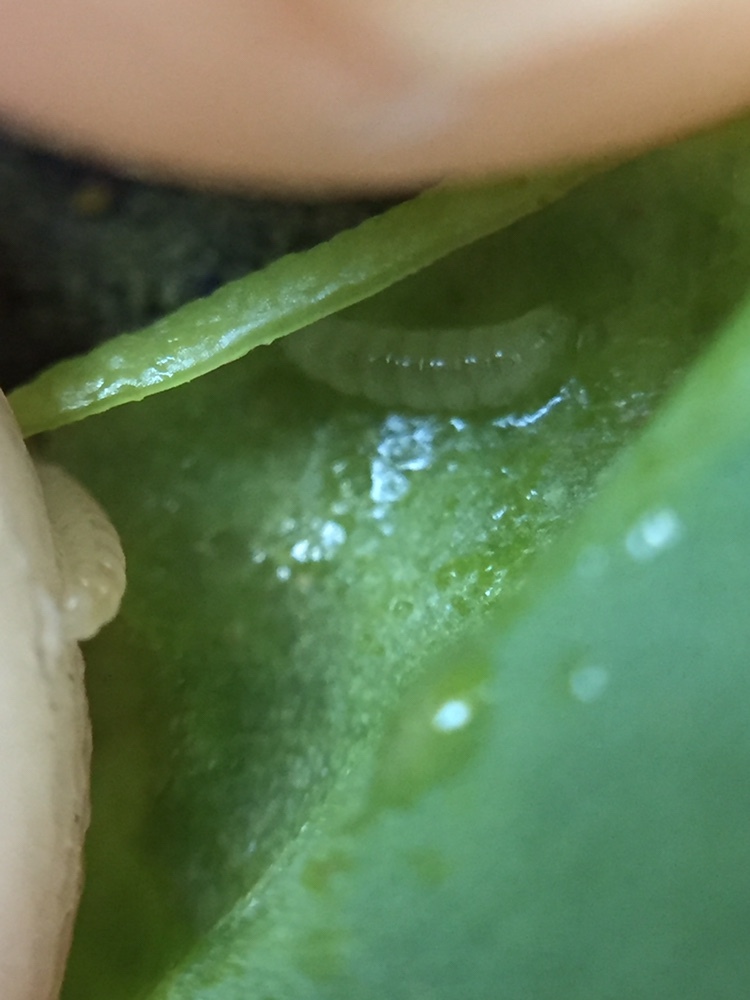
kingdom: Animalia
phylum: Arthropoda
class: Insecta
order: Diptera
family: Cecidomyiidae
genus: Obolodiplosis
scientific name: Obolodiplosis robiniae
